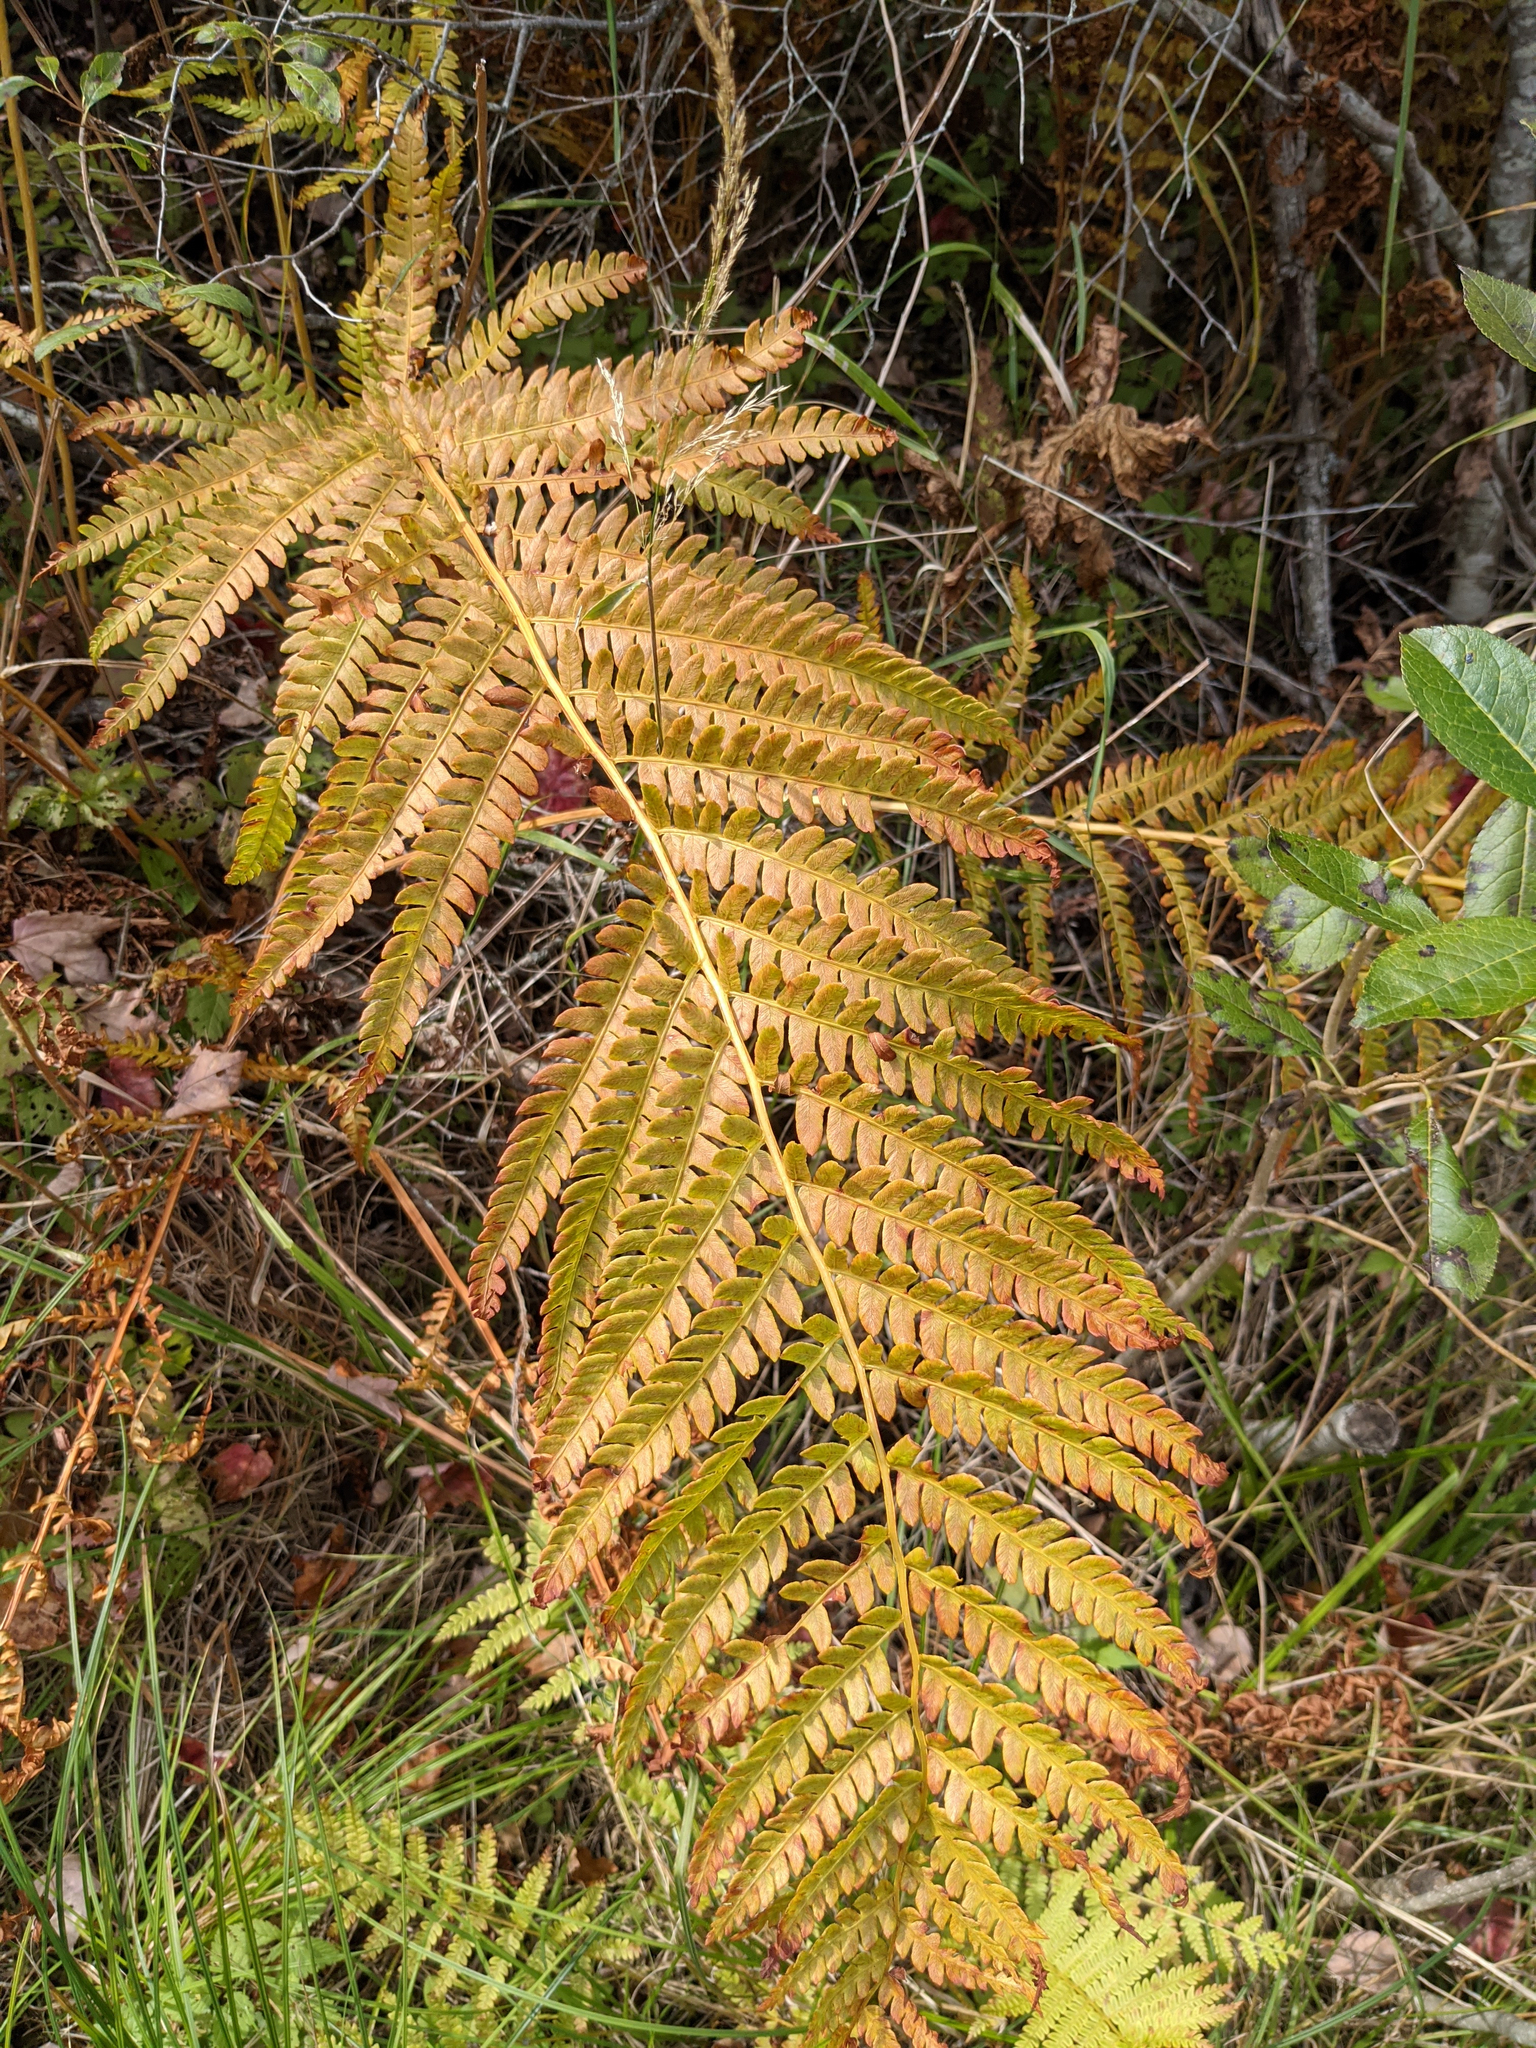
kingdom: Plantae
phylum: Tracheophyta
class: Polypodiopsida
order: Osmundales
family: Osmundaceae
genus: Osmundastrum
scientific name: Osmundastrum cinnamomeum
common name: Cinnamon fern
